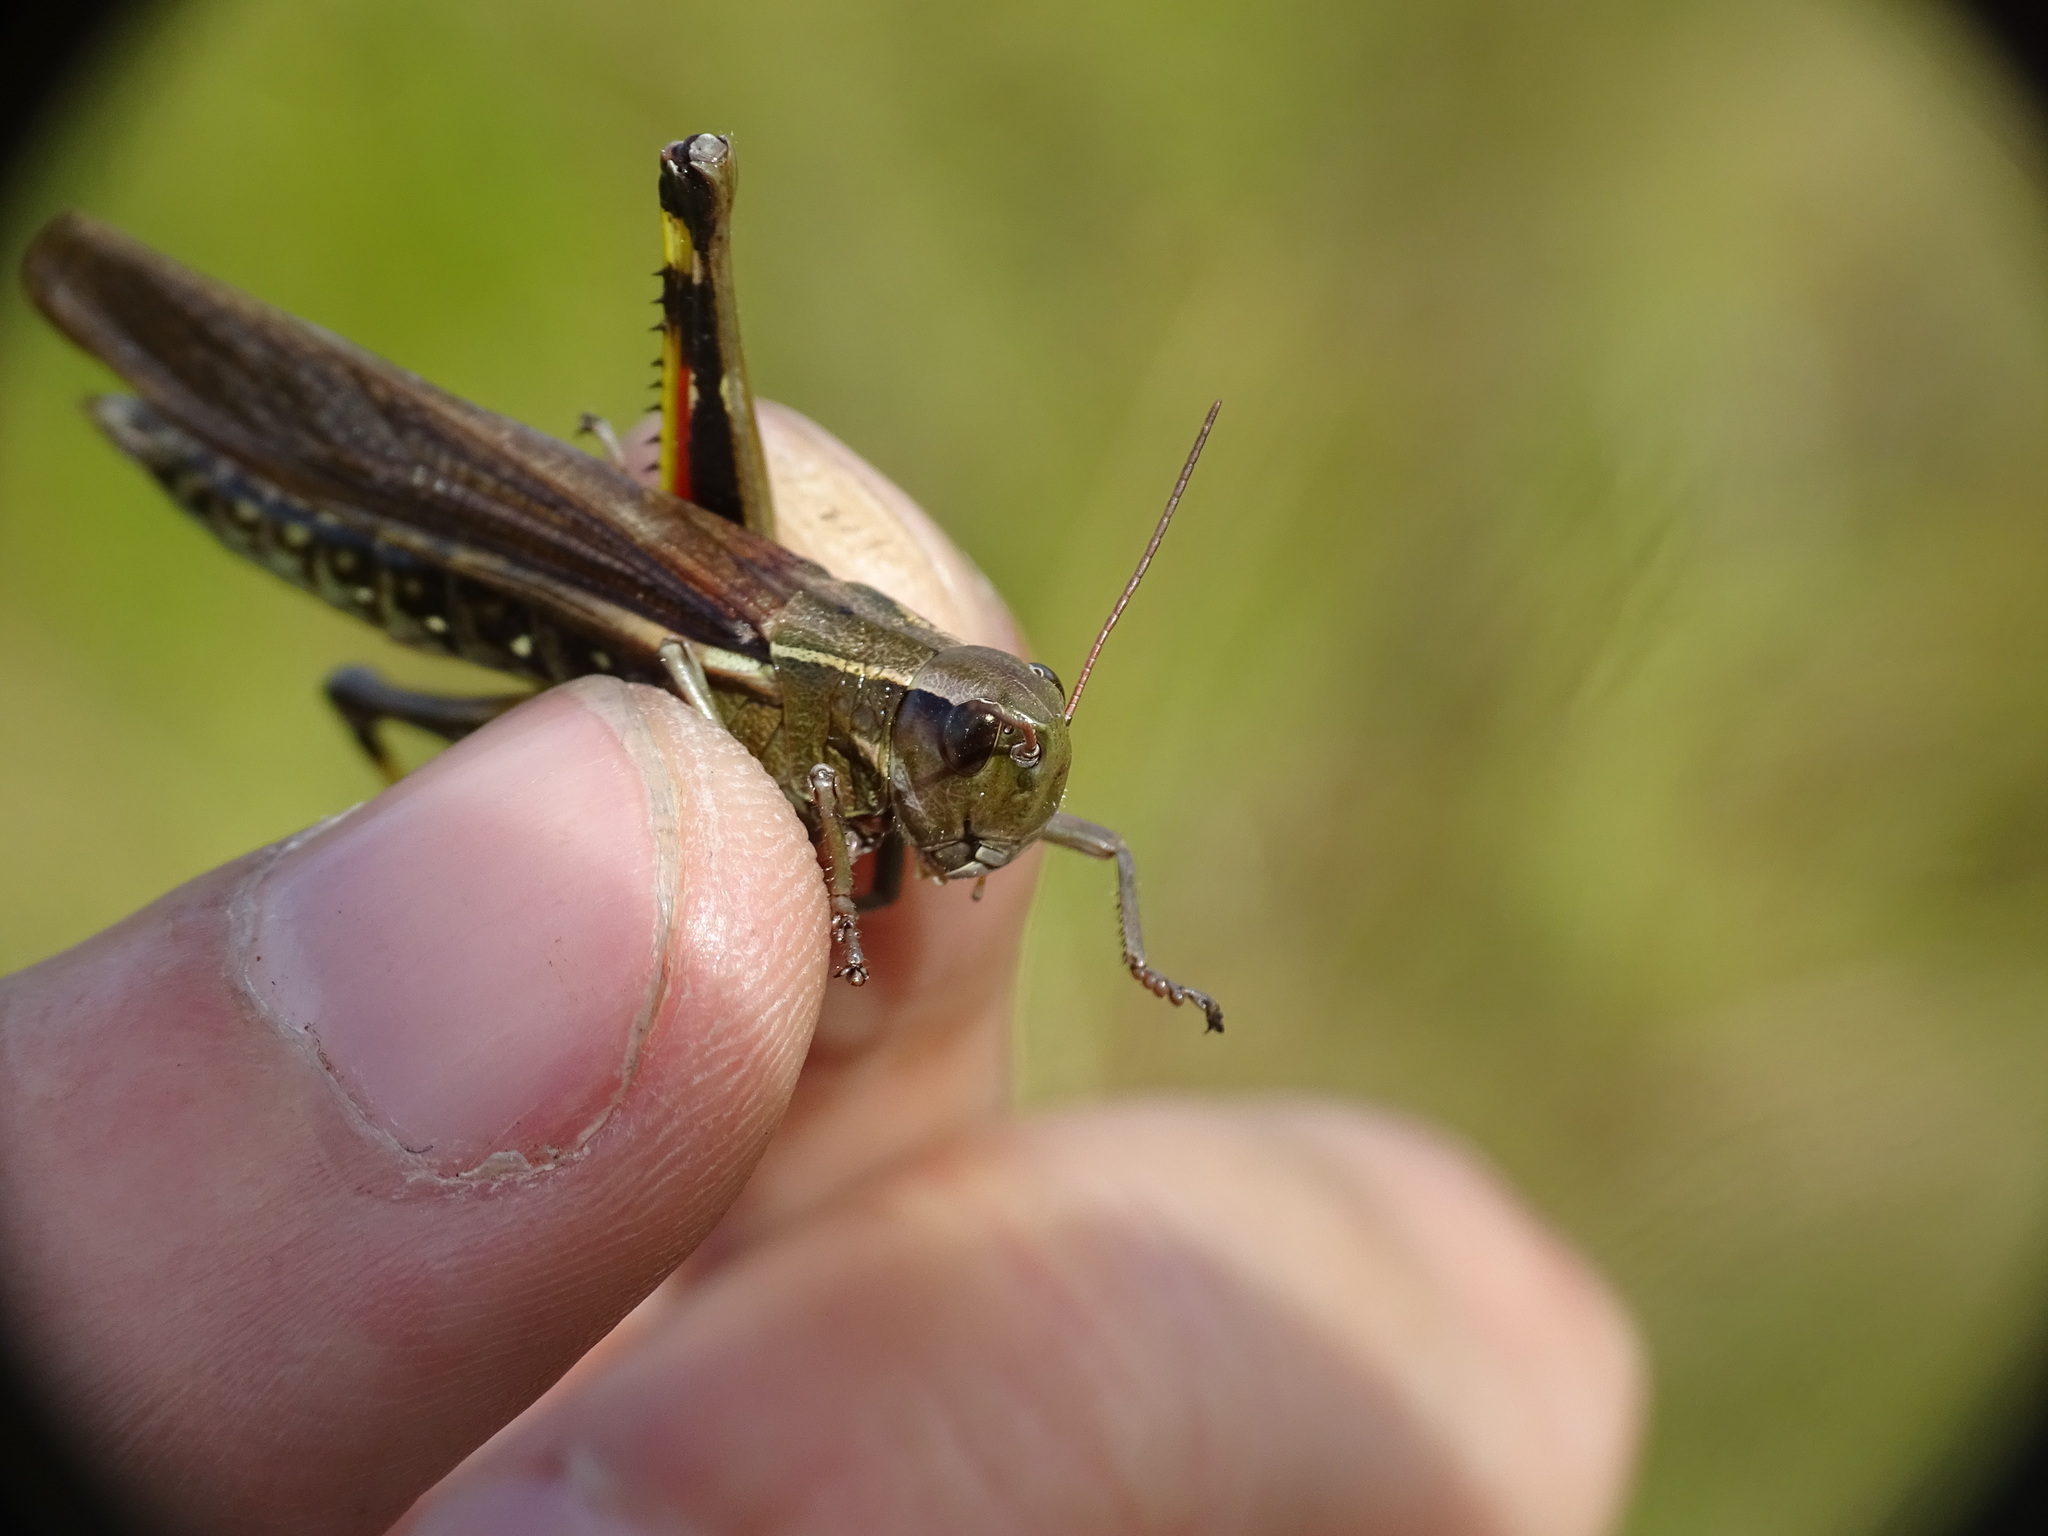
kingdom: Animalia
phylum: Arthropoda
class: Insecta
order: Orthoptera
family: Acrididae
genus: Stethophyma
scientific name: Stethophyma lineatum
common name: Striped sedge locust
